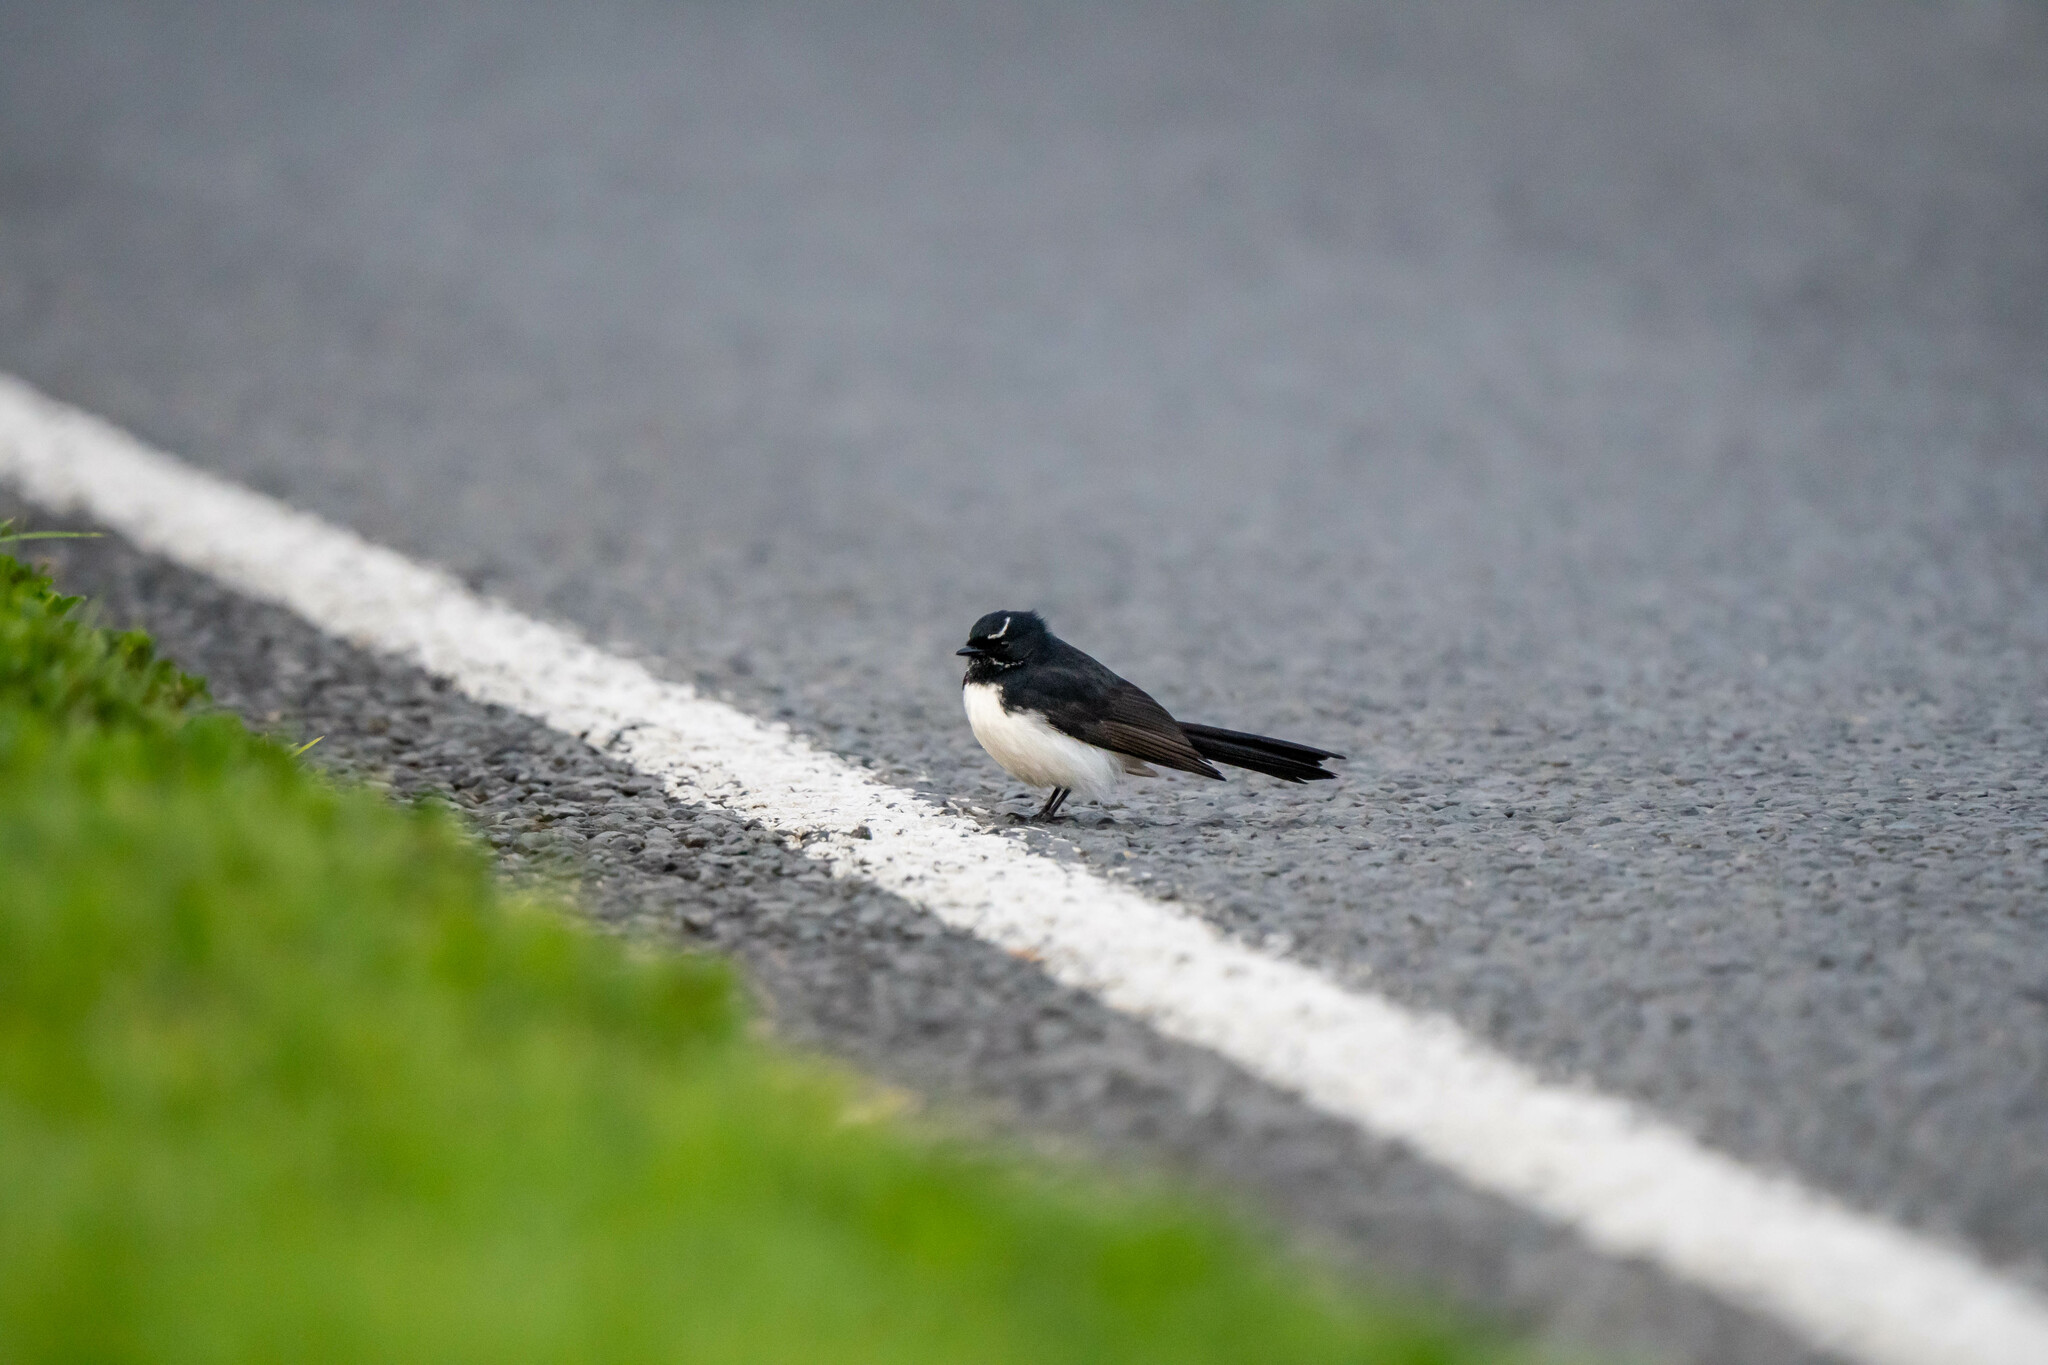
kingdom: Animalia
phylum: Chordata
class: Aves
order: Passeriformes
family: Rhipiduridae
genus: Rhipidura
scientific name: Rhipidura leucophrys
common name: Willie wagtail
